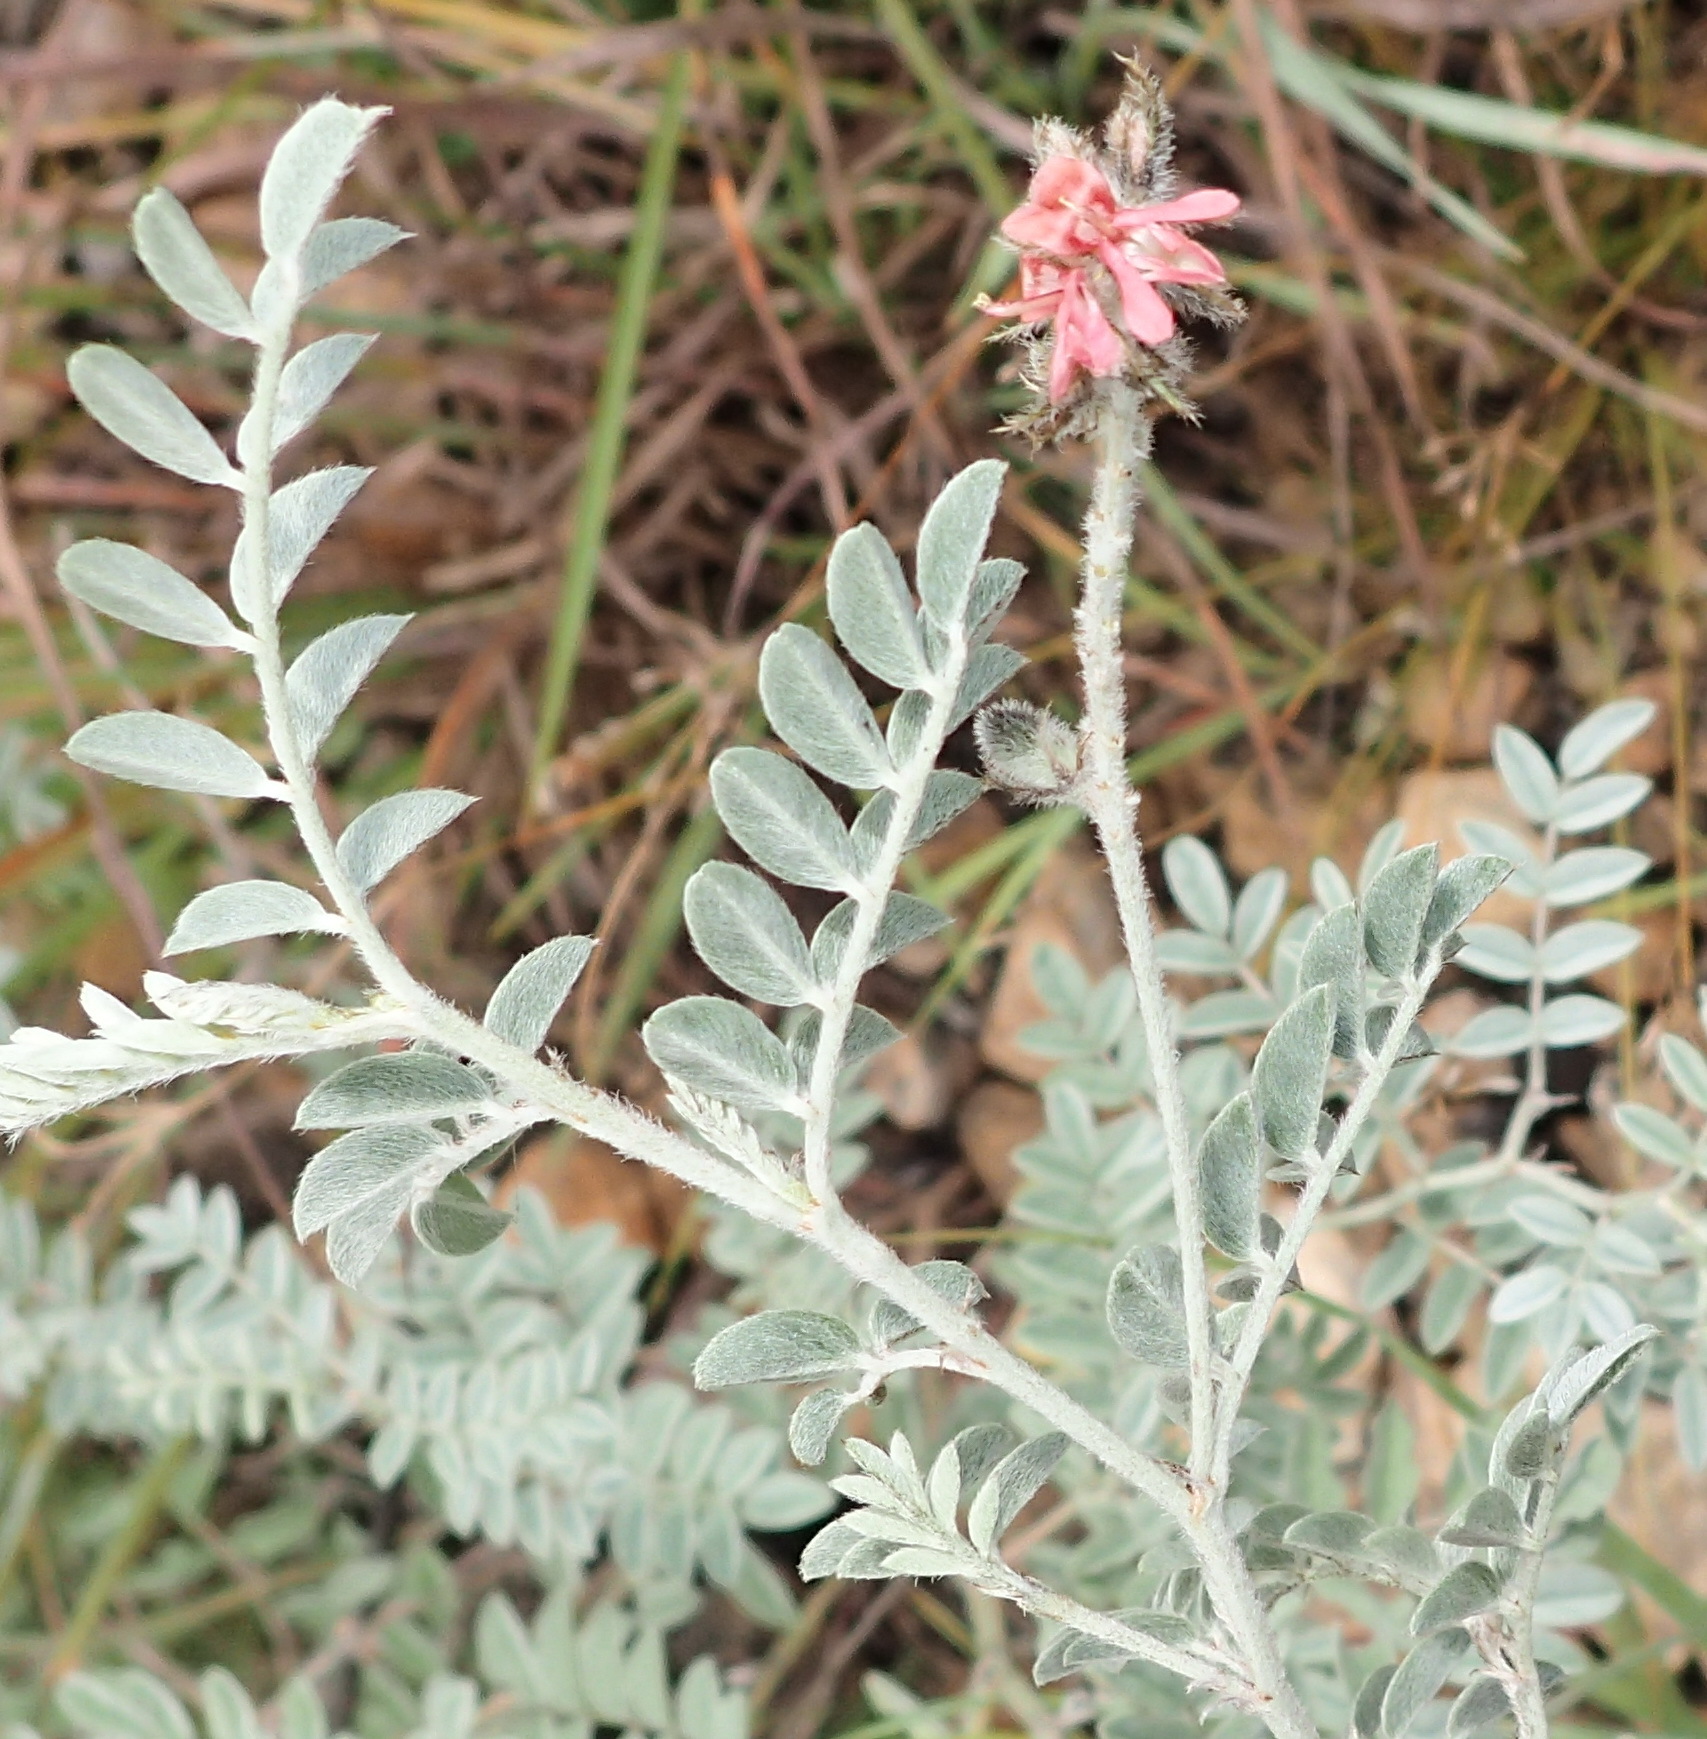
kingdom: Plantae
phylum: Tracheophyta
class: Magnoliopsida
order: Fabales
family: Fabaceae
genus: Indigofera
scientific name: Indigofera melanadenia
